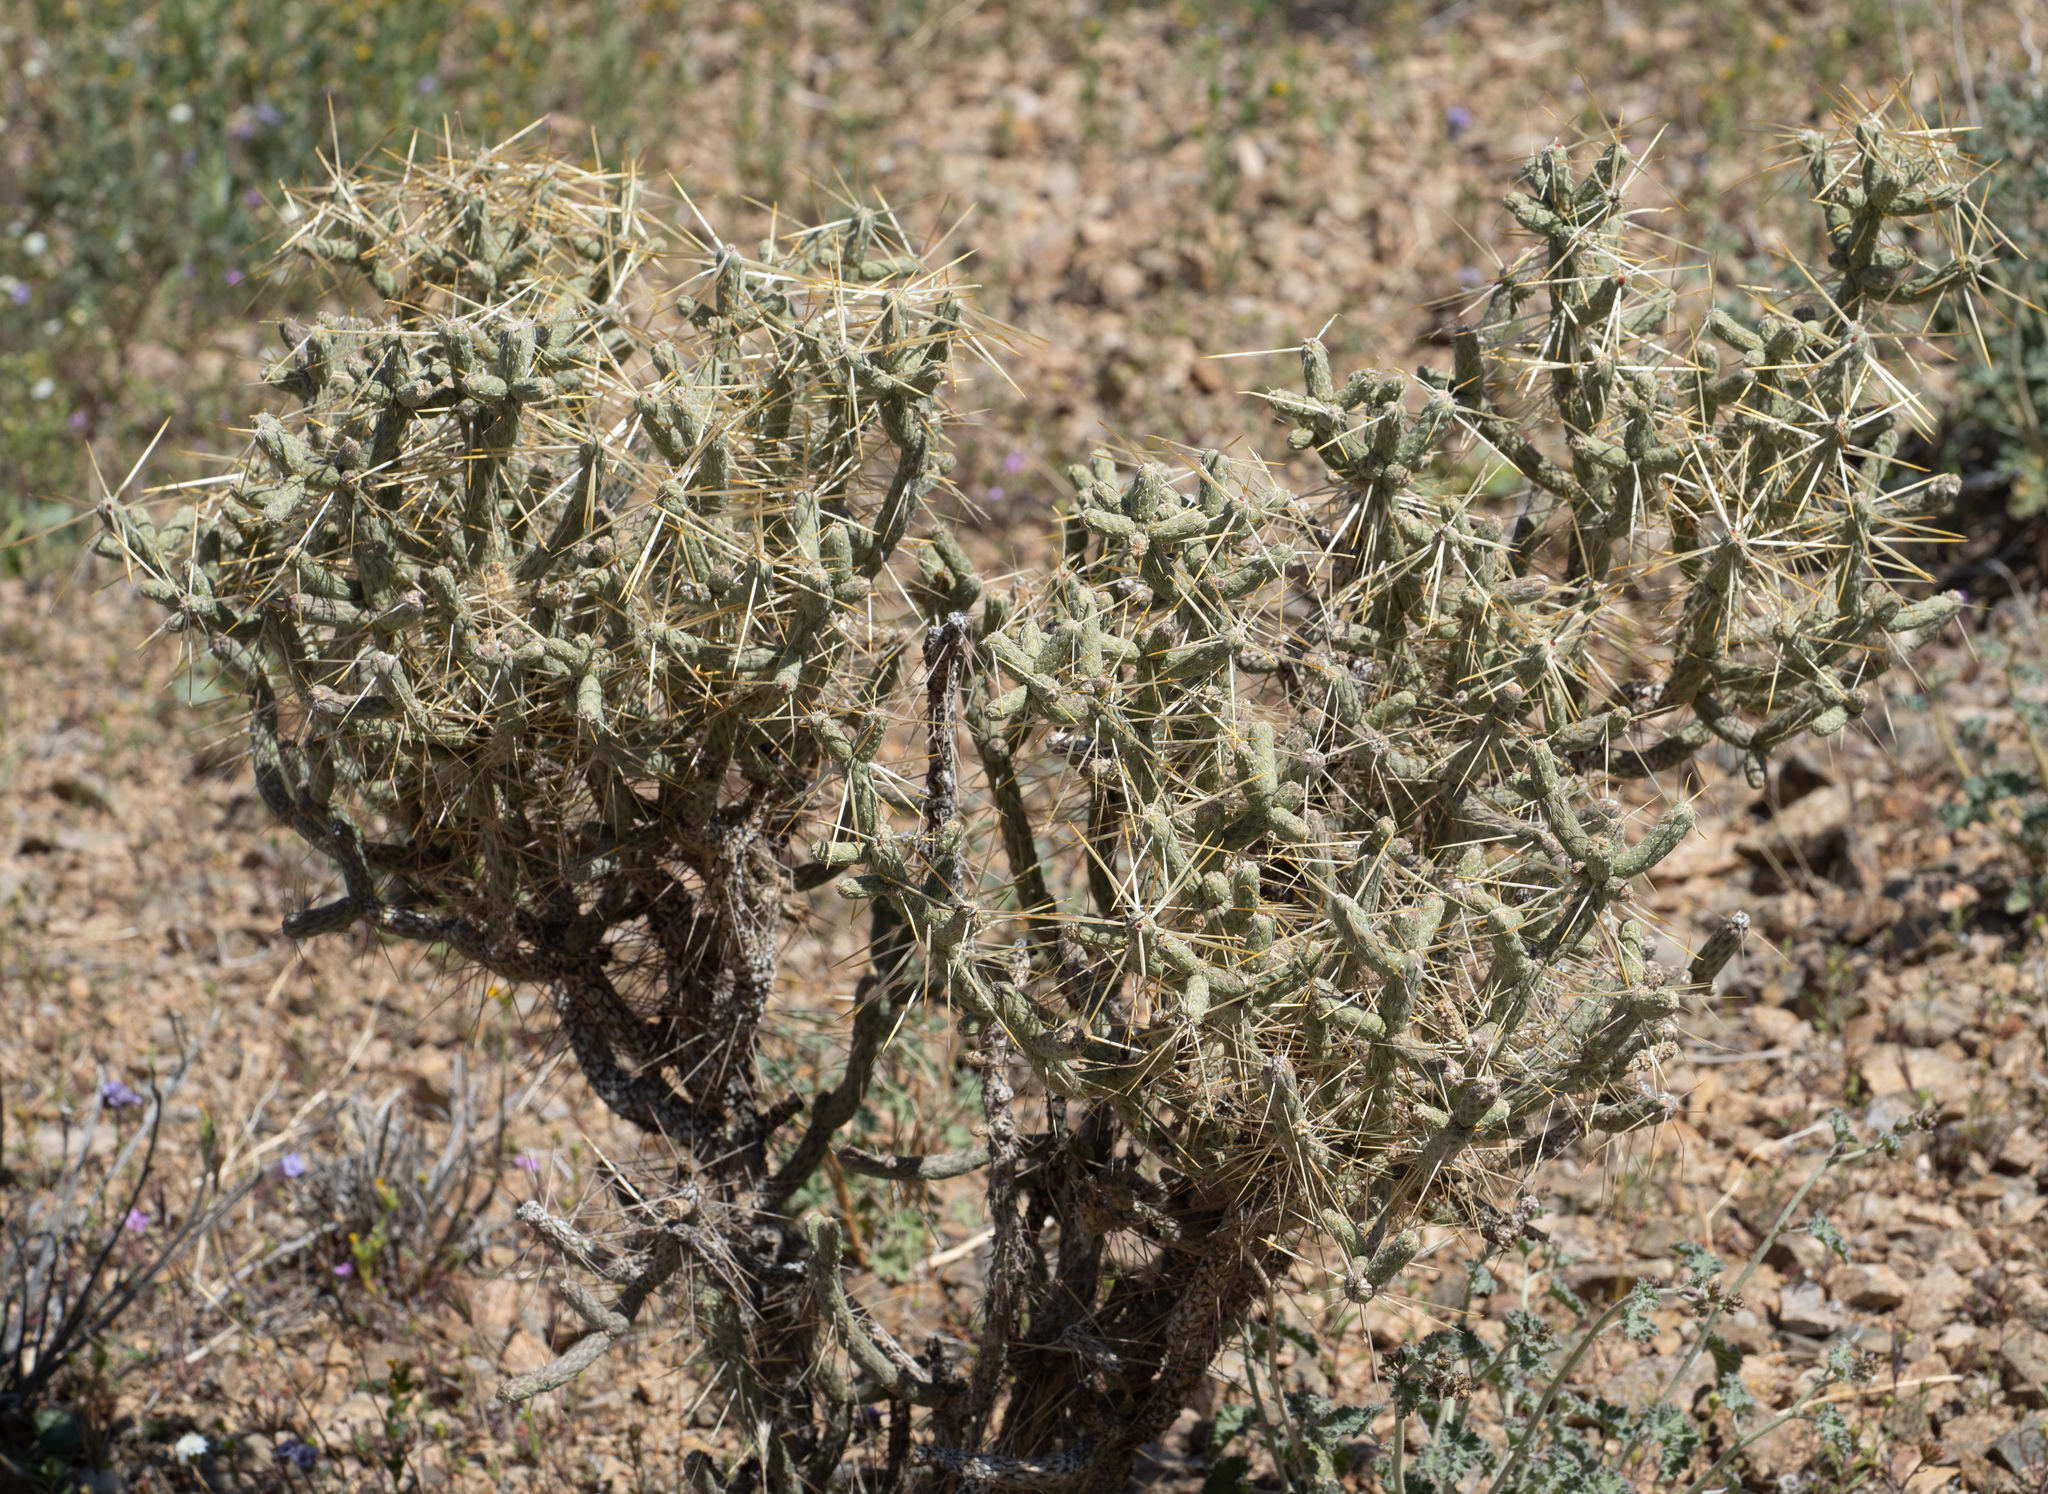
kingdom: Plantae
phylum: Tracheophyta
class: Magnoliopsida
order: Caryophyllales
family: Cactaceae
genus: Cylindropuntia
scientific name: Cylindropuntia ramosissima
